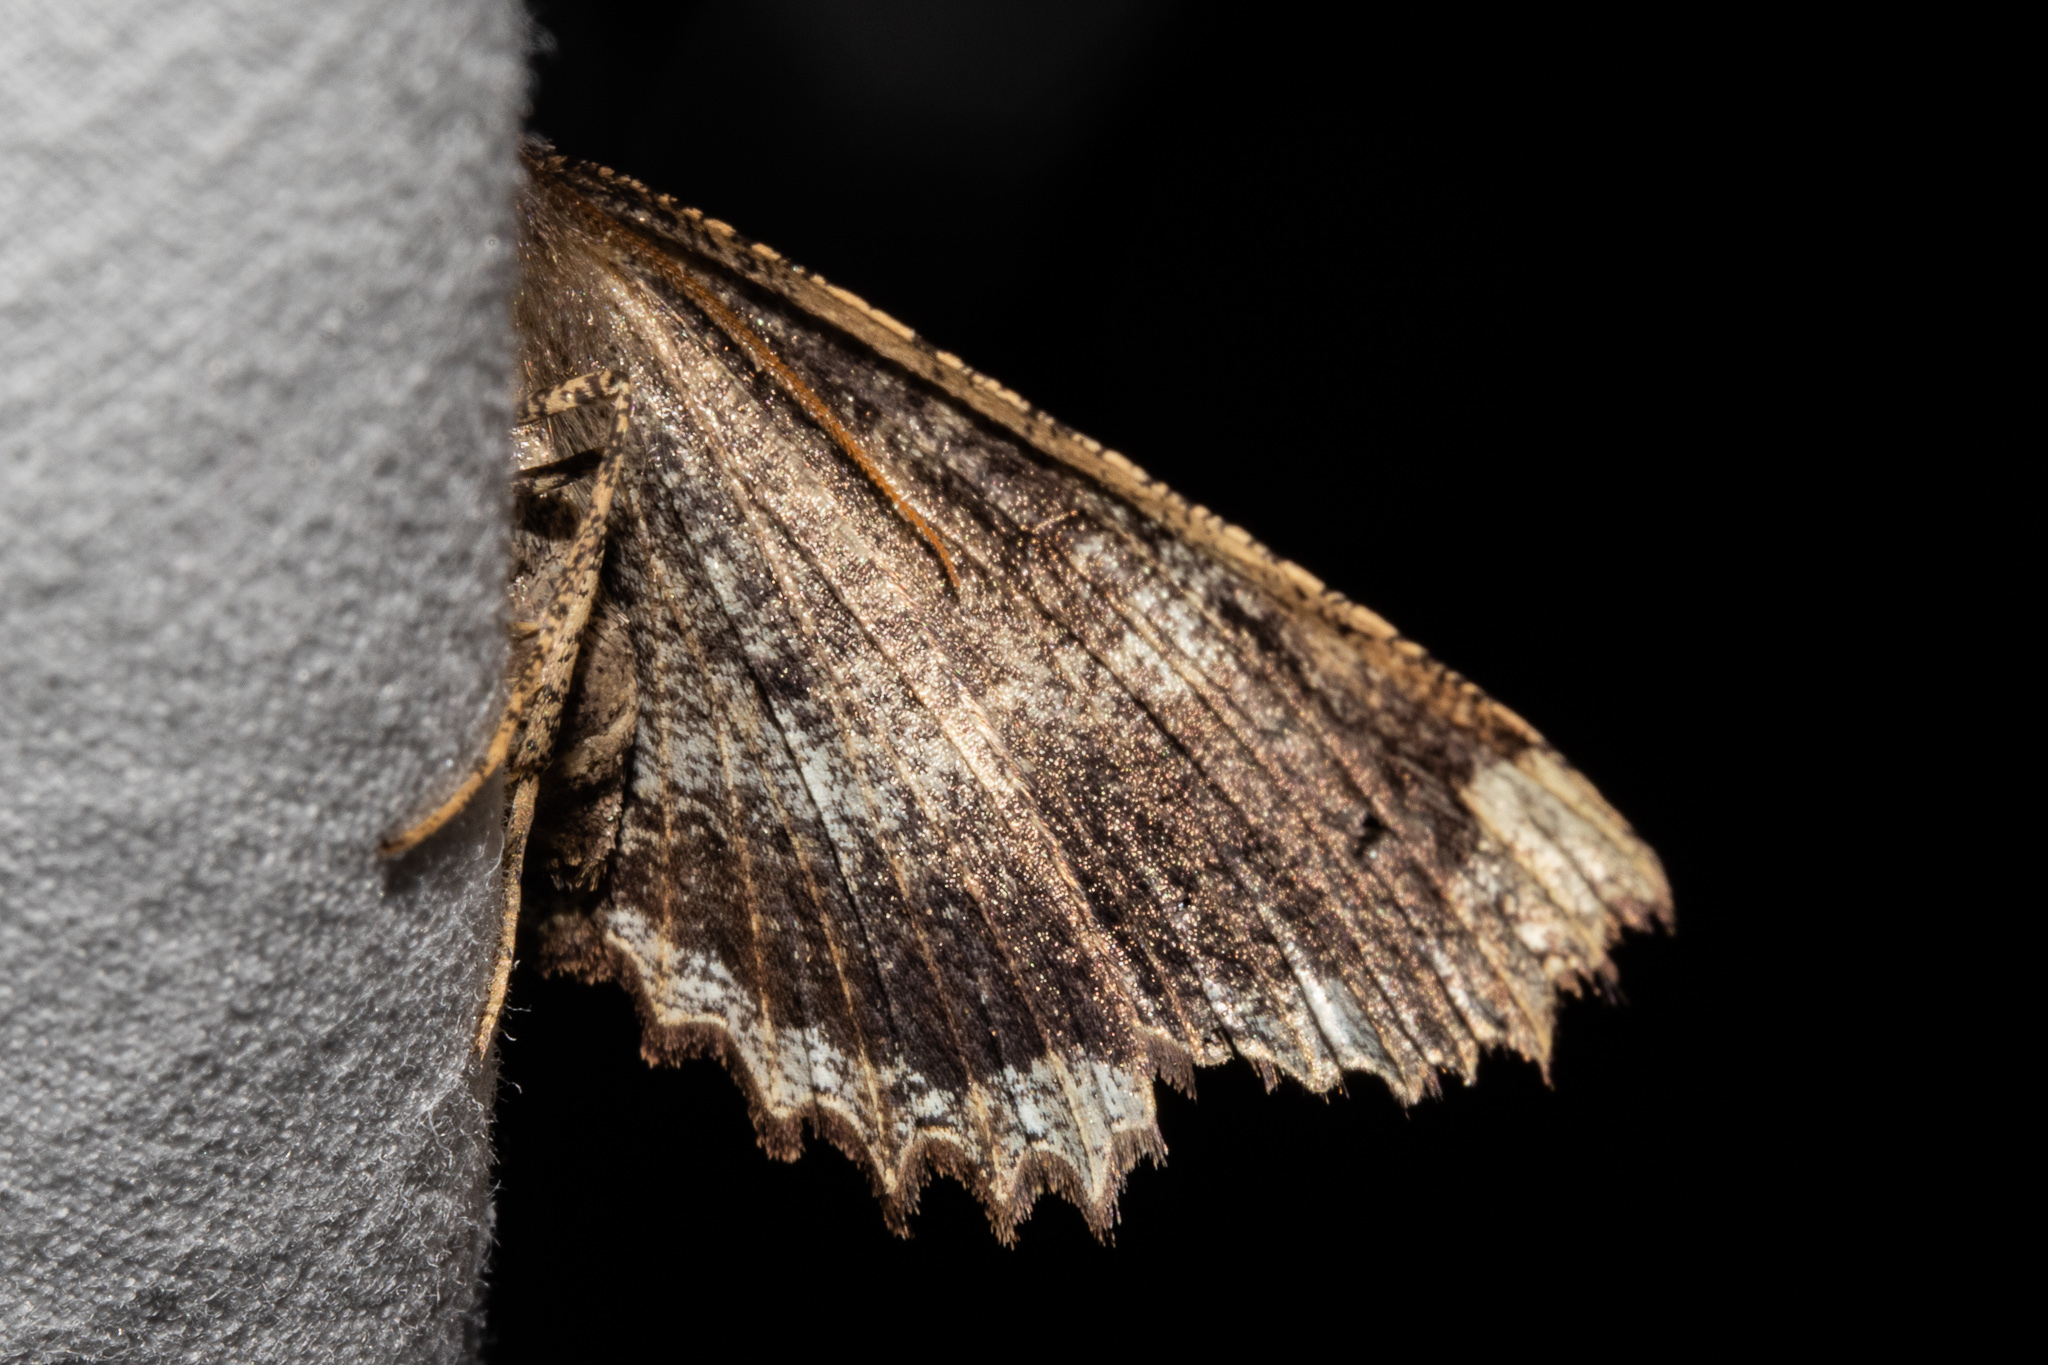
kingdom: Animalia
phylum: Arthropoda
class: Insecta
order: Lepidoptera
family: Geometridae
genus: Gellonia
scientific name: Gellonia dejectaria
